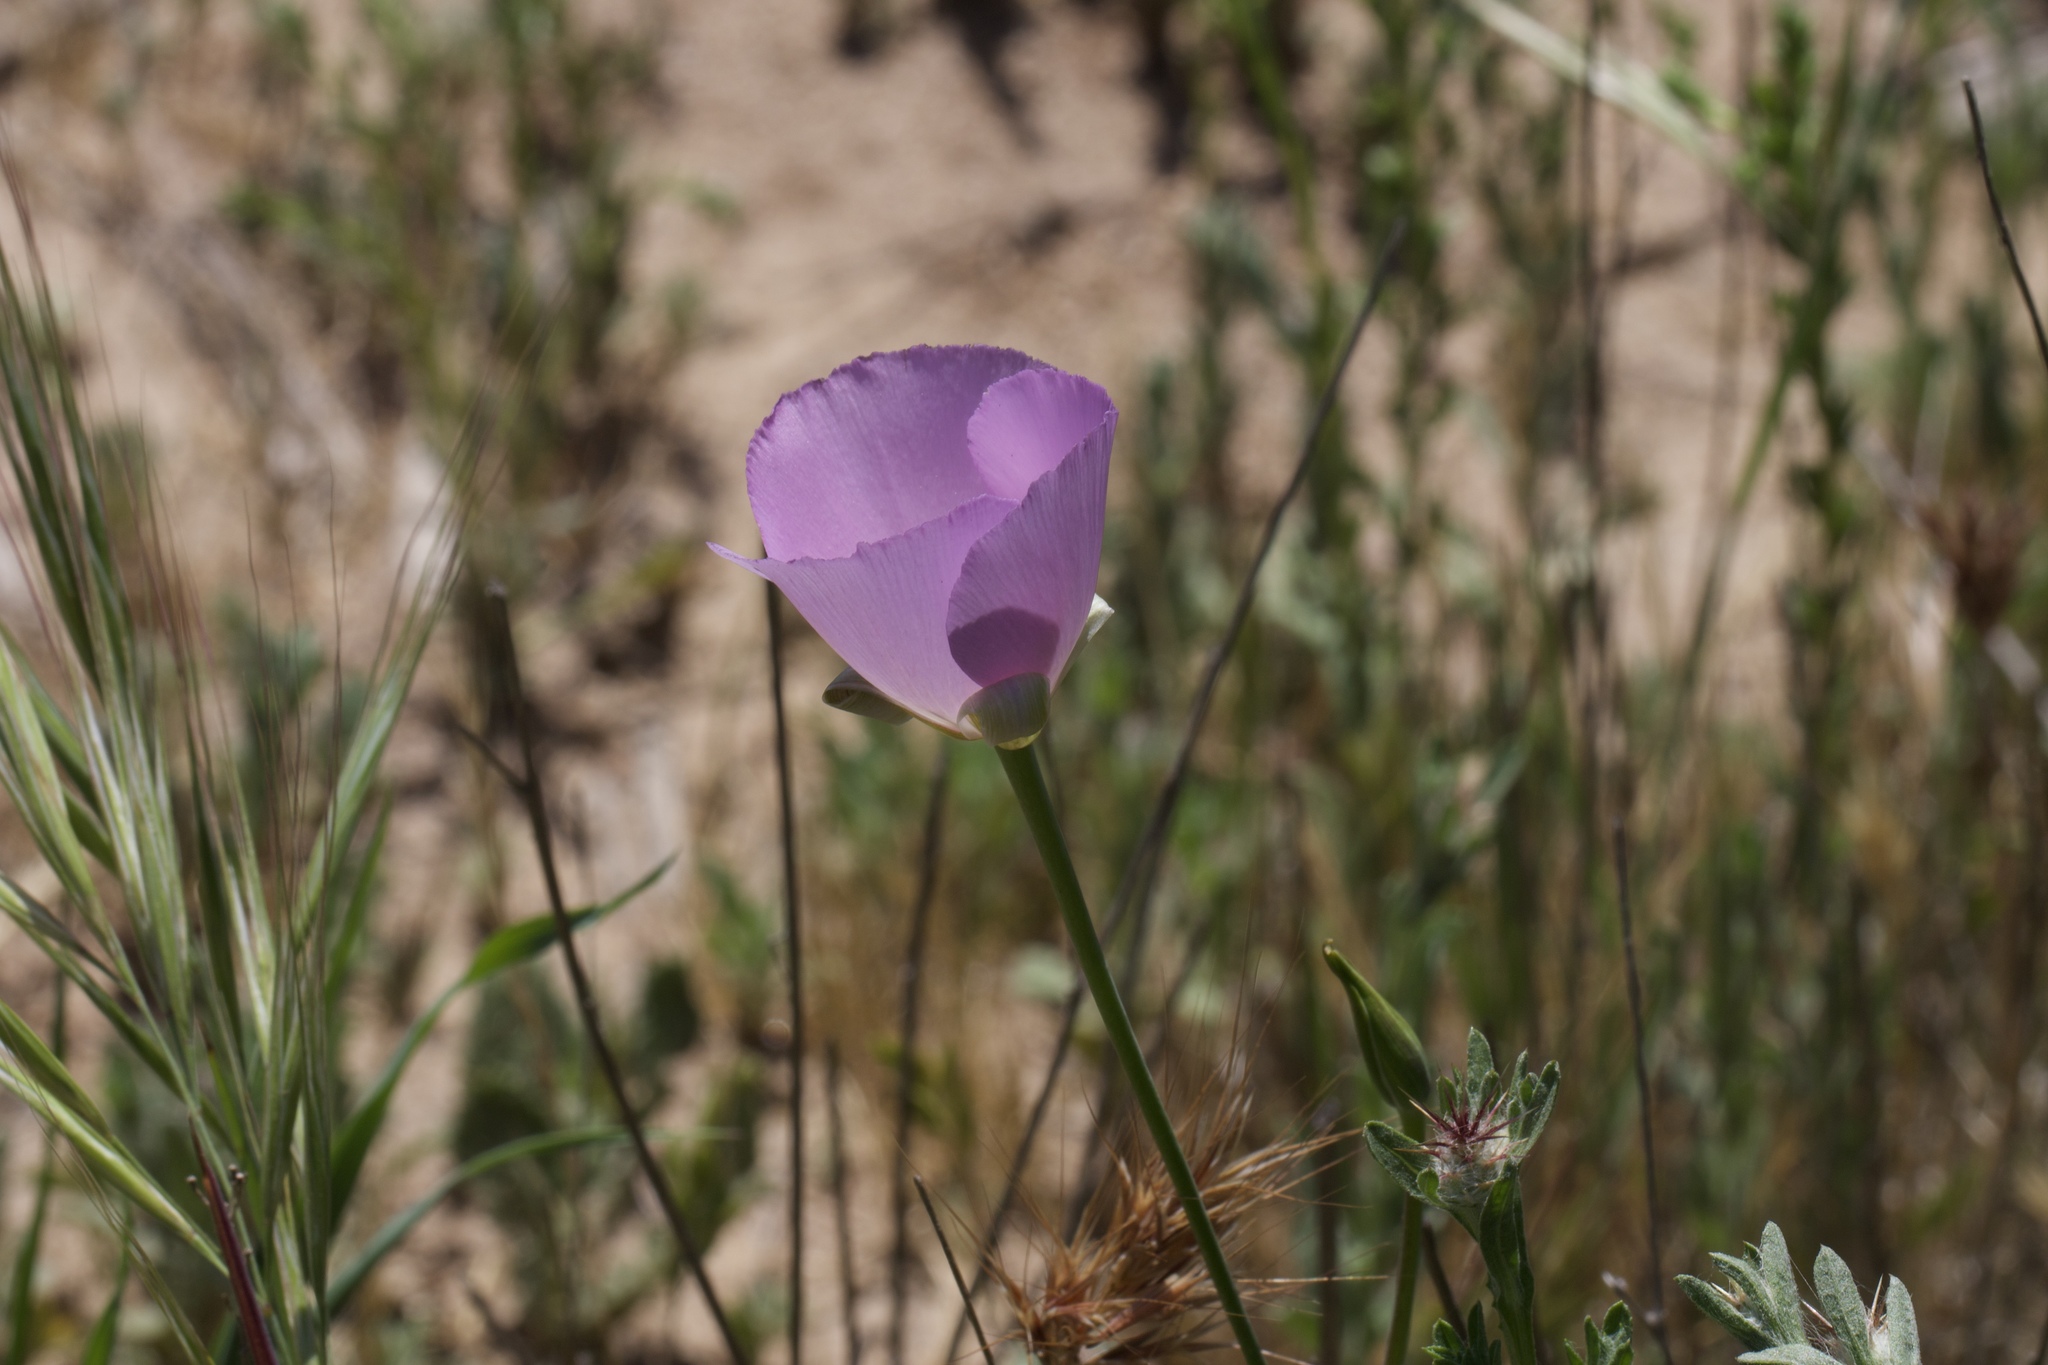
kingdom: Plantae
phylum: Tracheophyta
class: Liliopsida
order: Liliales
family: Liliaceae
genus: Calochortus
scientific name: Calochortus splendens
